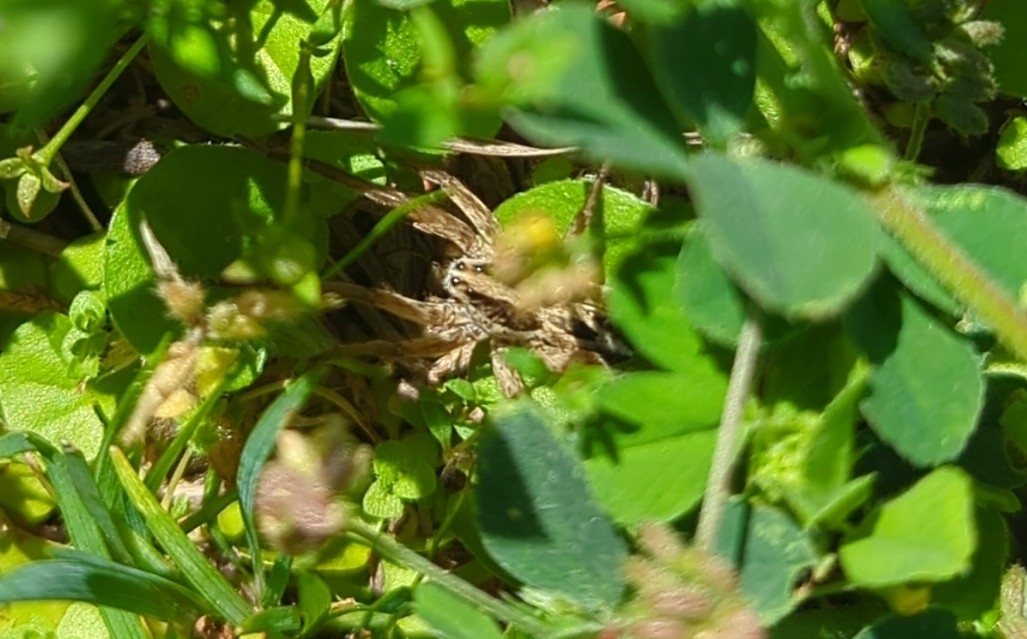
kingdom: Animalia
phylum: Arthropoda
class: Arachnida
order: Araneae
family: Lycosidae
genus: Schizocosa
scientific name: Schizocosa avida
